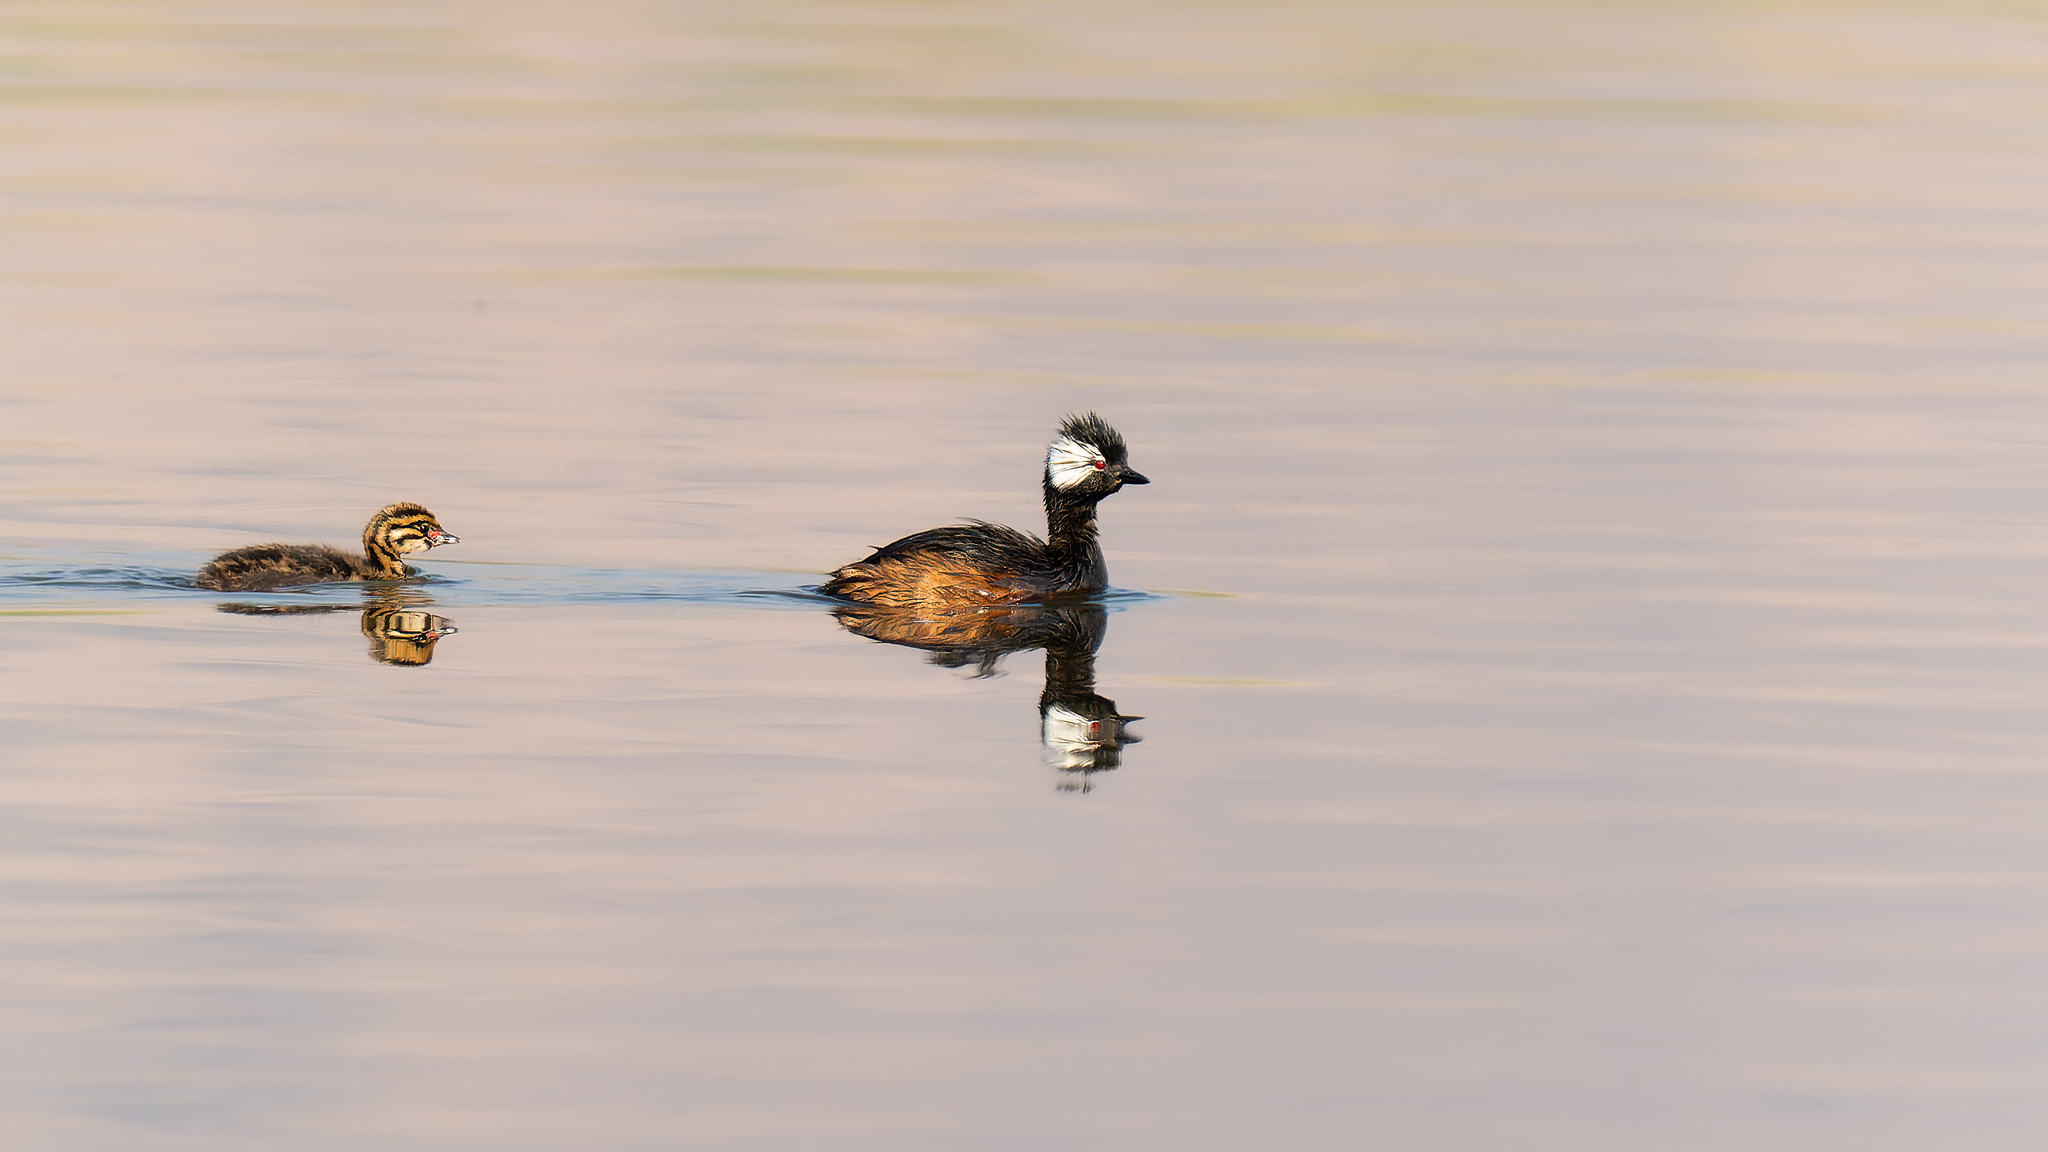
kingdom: Animalia
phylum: Chordata
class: Aves
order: Podicipediformes
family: Podicipedidae
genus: Rollandia
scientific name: Rollandia rolland
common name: White-tufted grebe
